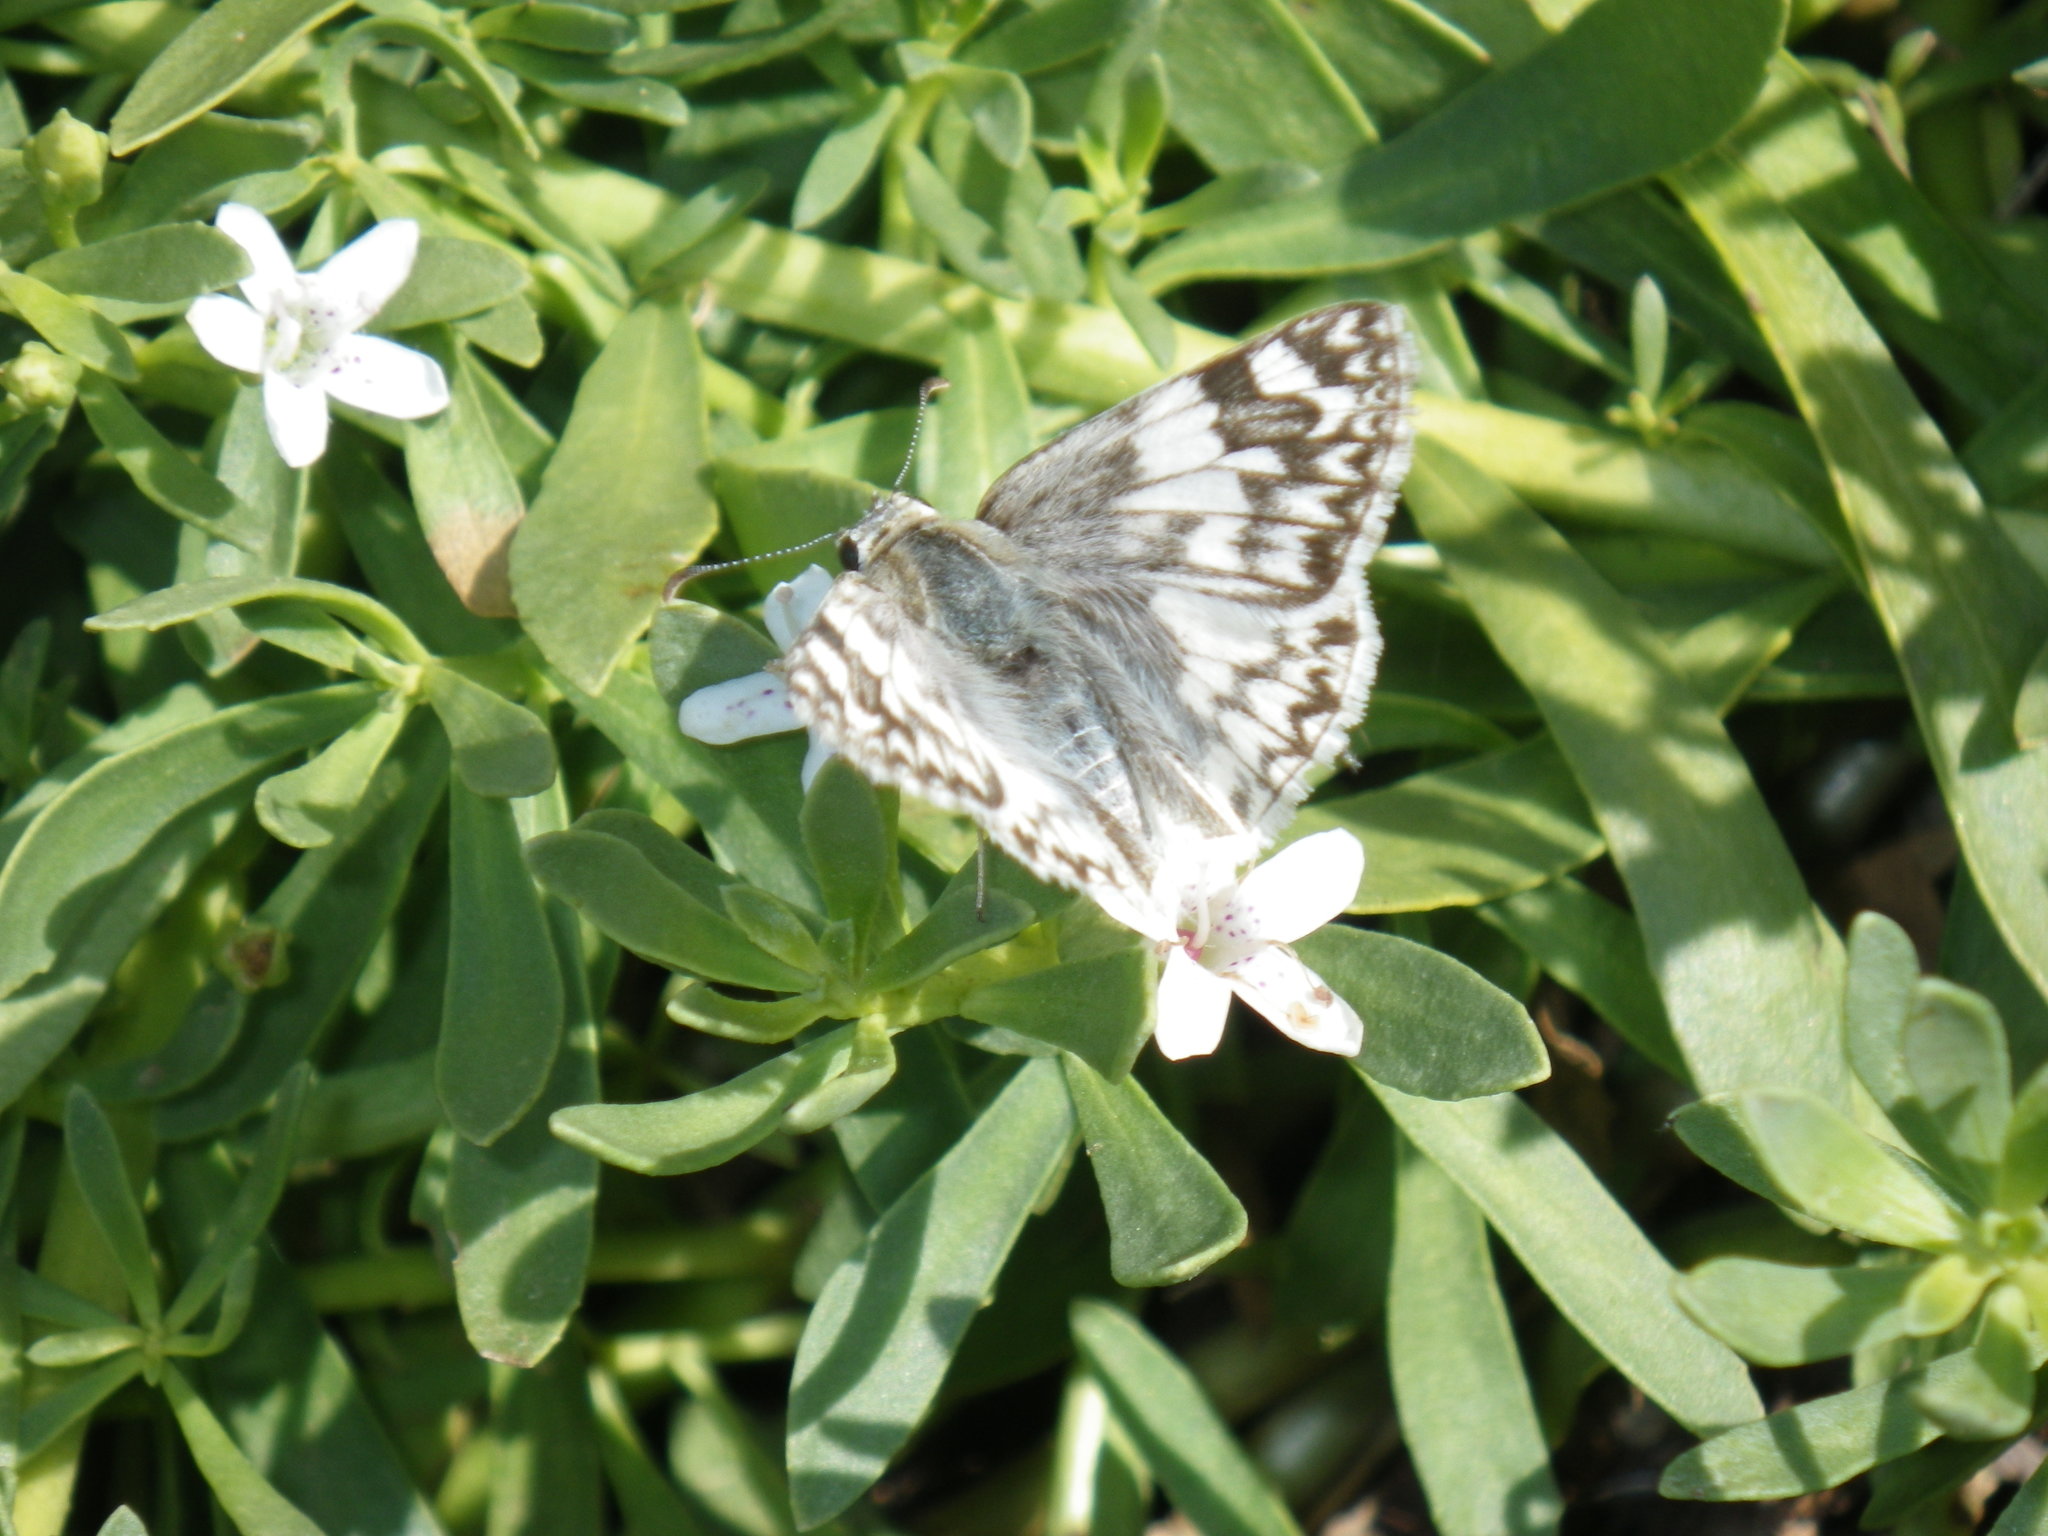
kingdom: Animalia
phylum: Arthropoda
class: Insecta
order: Lepidoptera
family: Hesperiidae
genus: Burnsius
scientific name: Burnsius albezens
